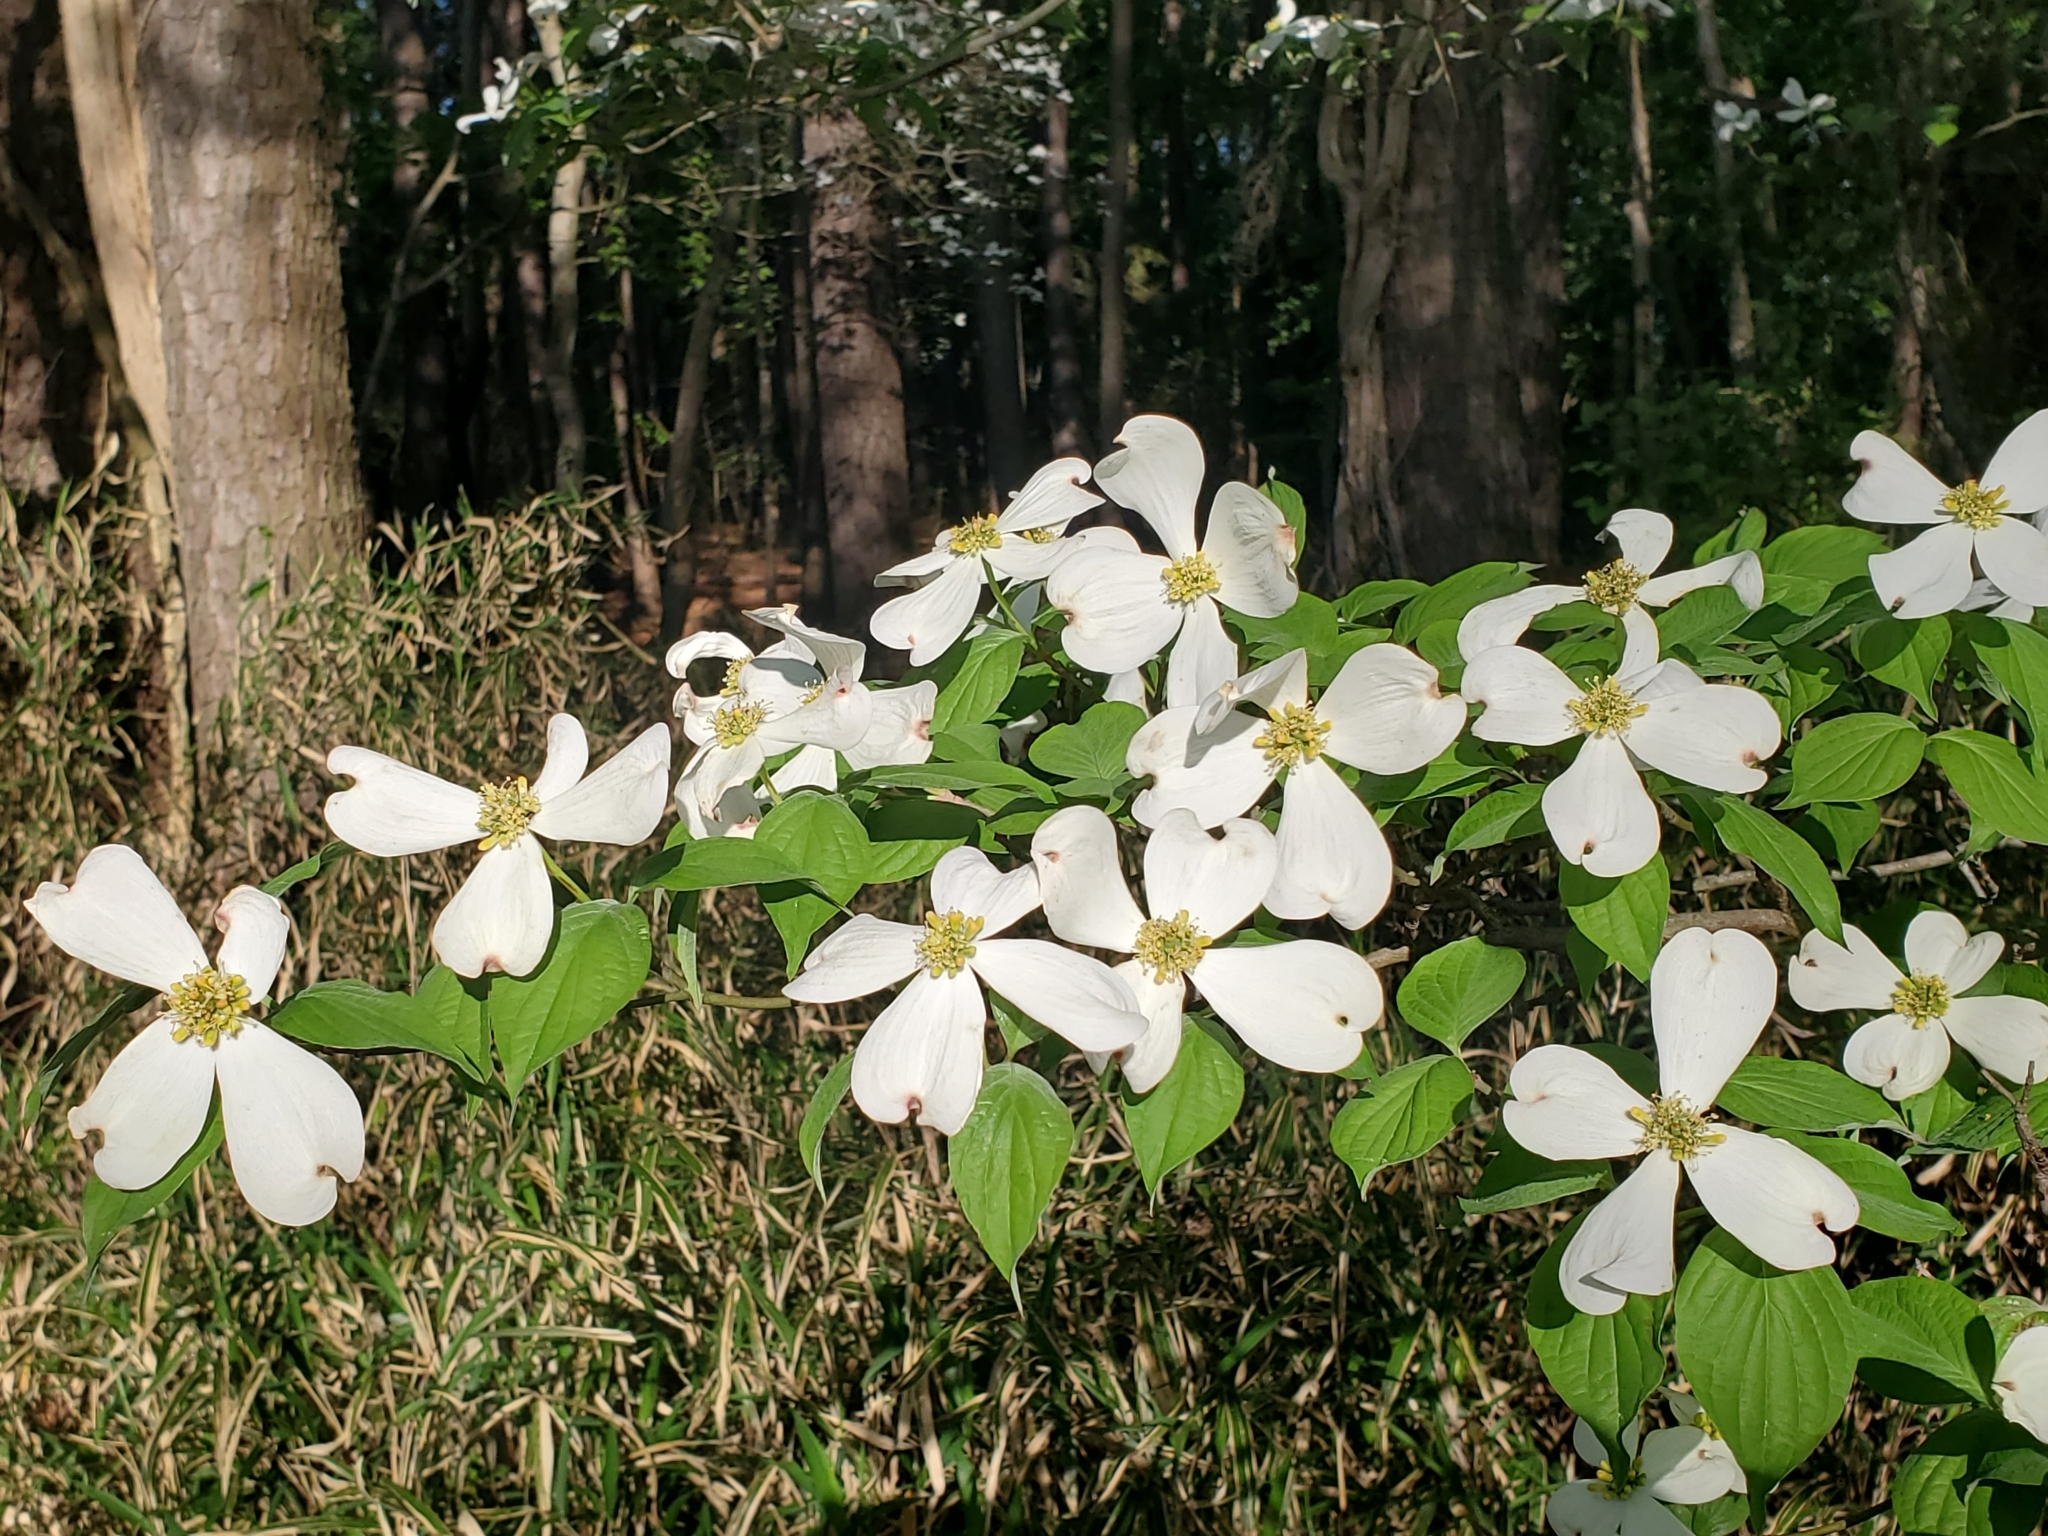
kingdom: Plantae
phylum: Tracheophyta
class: Magnoliopsida
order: Cornales
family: Cornaceae
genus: Cornus
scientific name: Cornus florida
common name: Flowering dogwood
